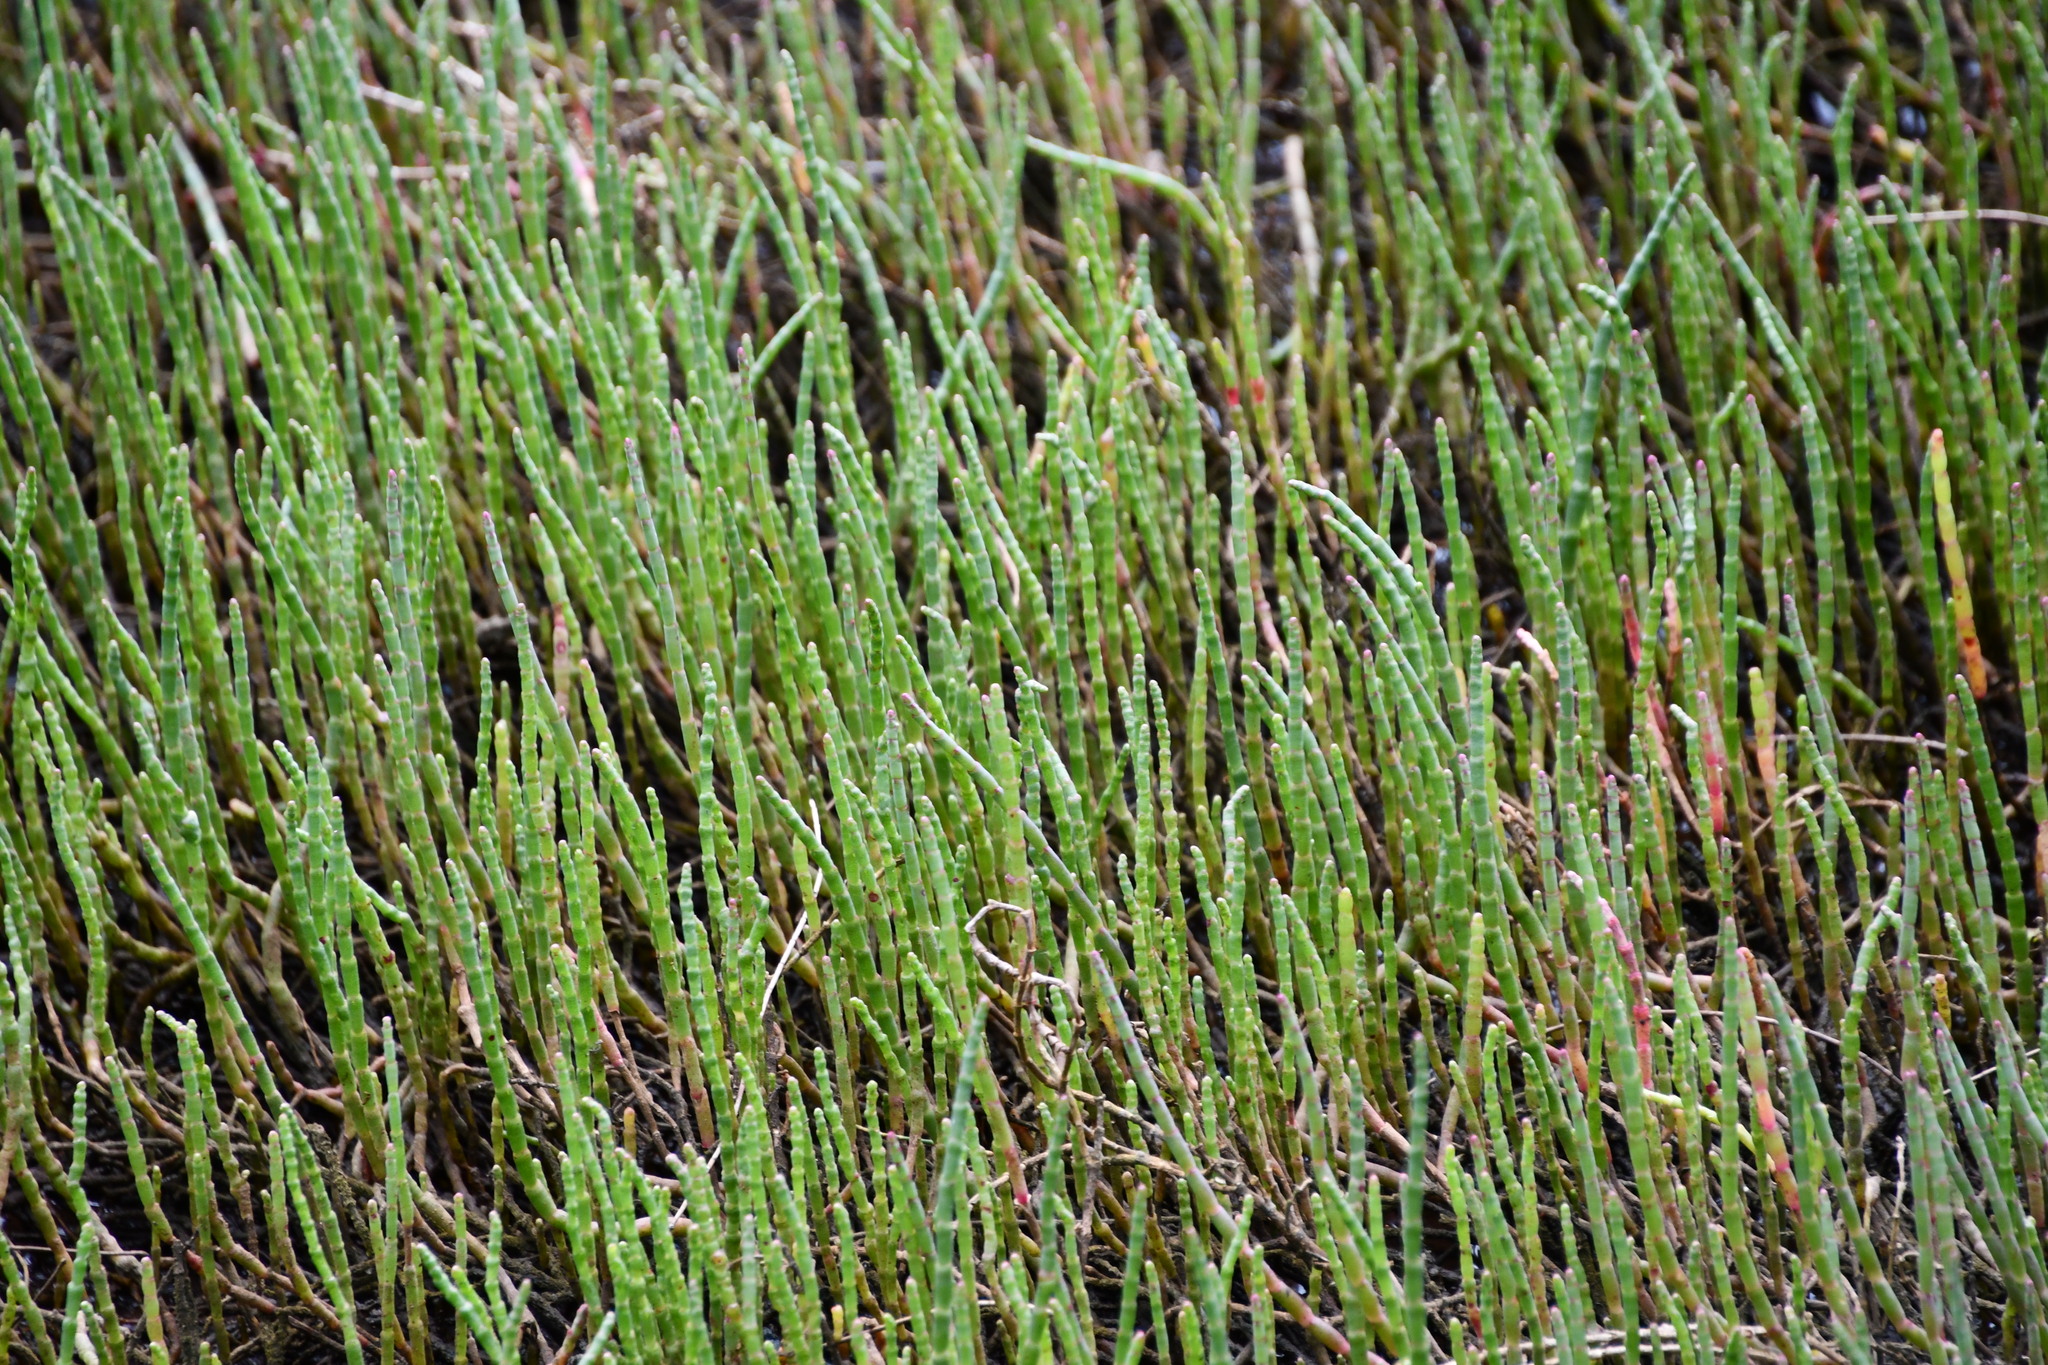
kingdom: Plantae
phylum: Tracheophyta
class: Magnoliopsida
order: Caryophyllales
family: Amaranthaceae
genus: Salicornia
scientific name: Salicornia quinqueflora
